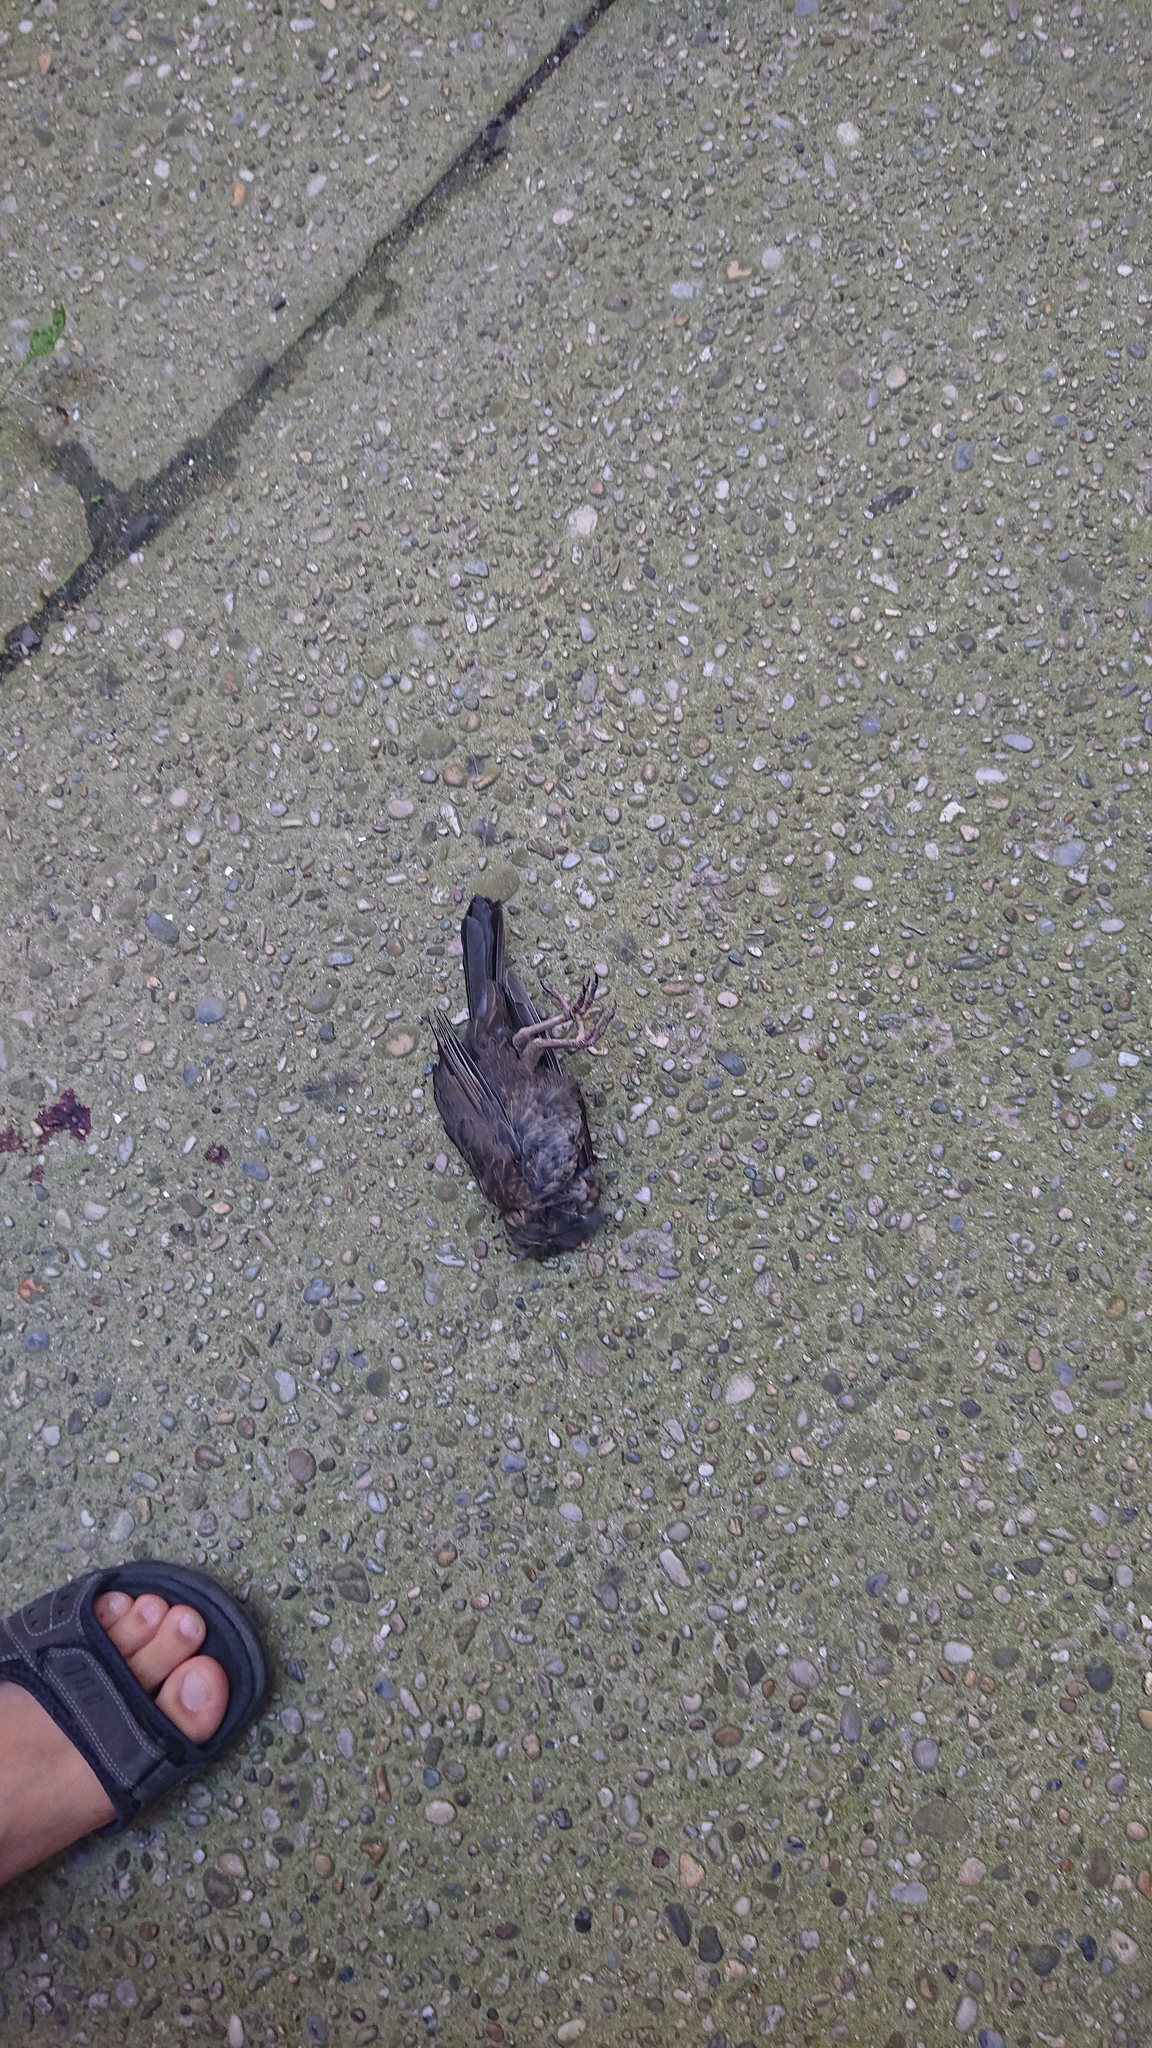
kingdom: Animalia
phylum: Chordata
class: Aves
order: Passeriformes
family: Turdidae
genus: Turdus
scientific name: Turdus merula
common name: Common blackbird
